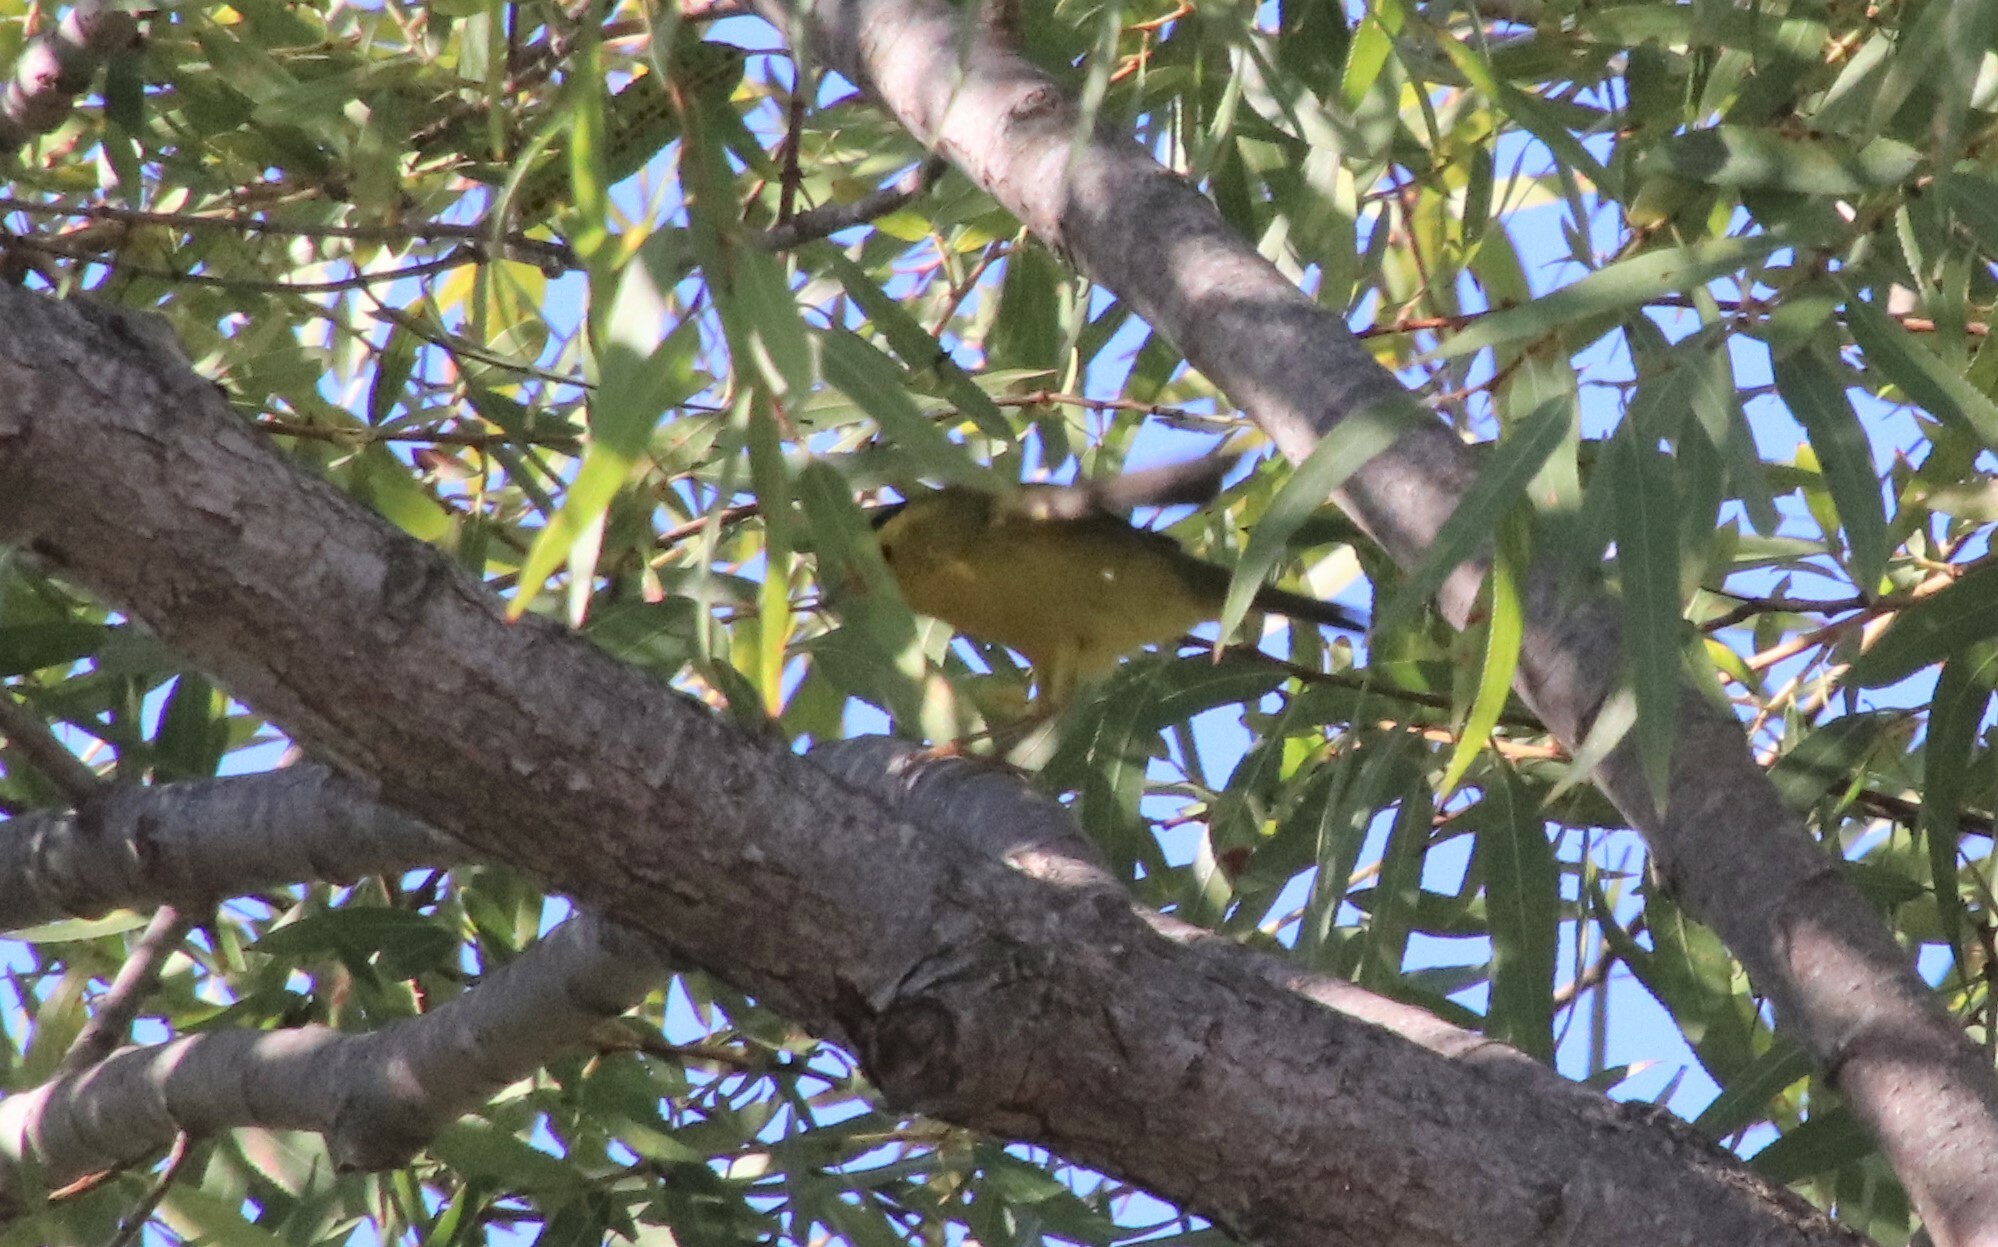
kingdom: Animalia
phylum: Chordata
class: Aves
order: Passeriformes
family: Parulidae
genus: Cardellina
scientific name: Cardellina pusilla
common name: Wilson's warbler
